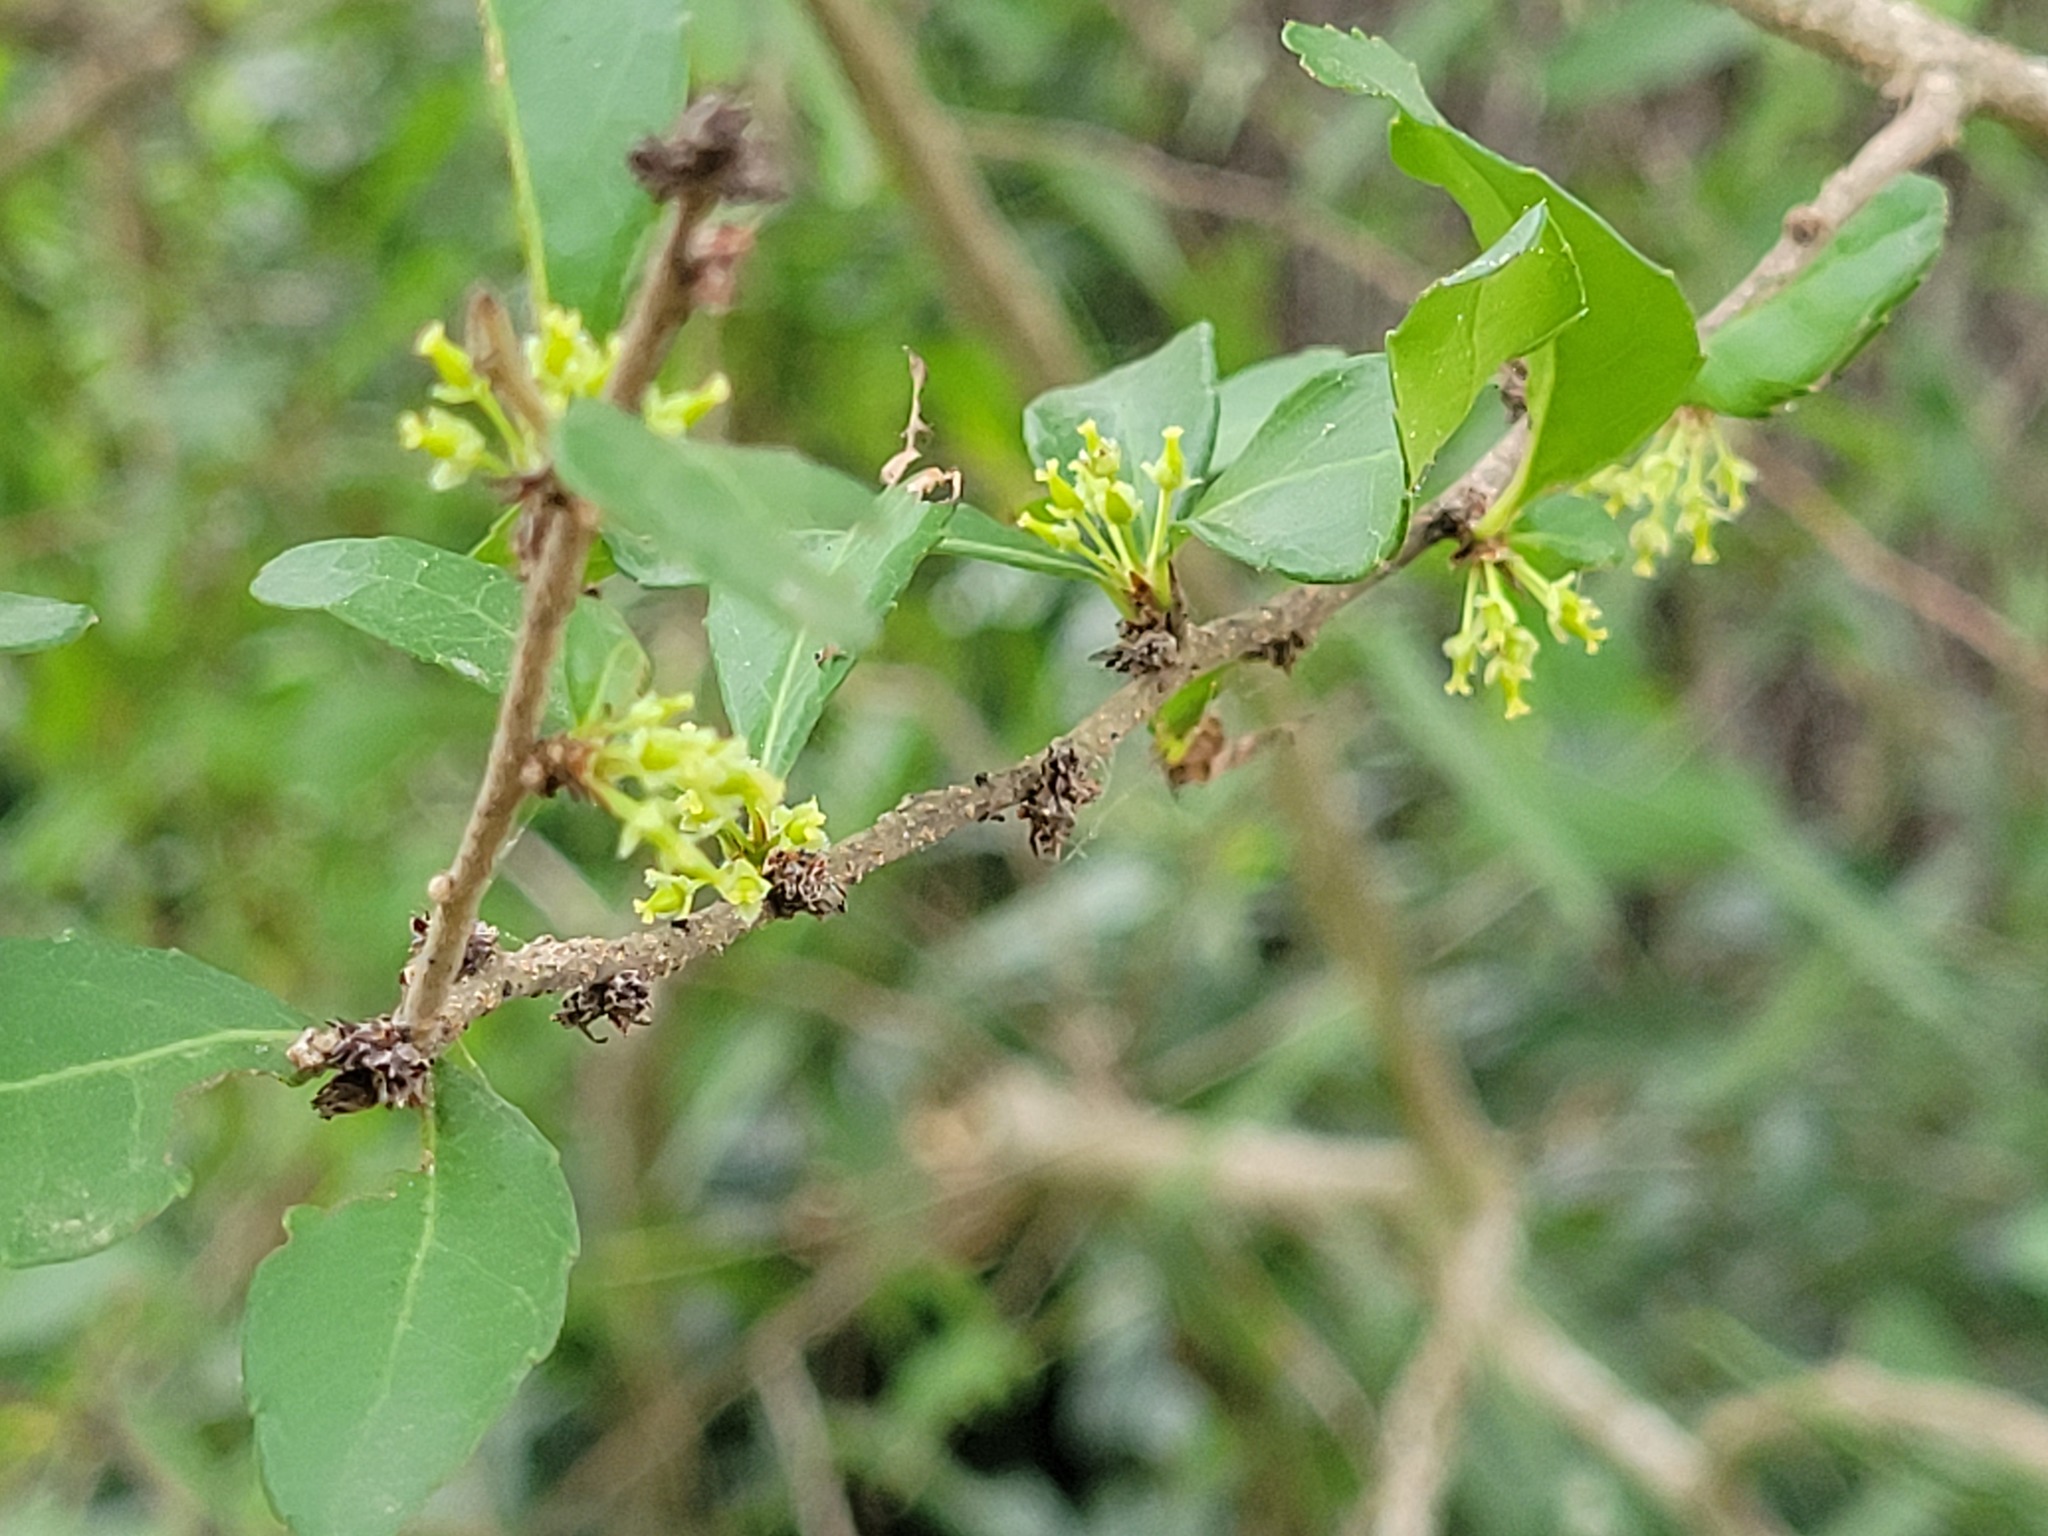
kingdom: Plantae
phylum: Tracheophyta
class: Magnoliopsida
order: Malpighiales
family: Salicaceae
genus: Xylosma
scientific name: Xylosma flexuosa
